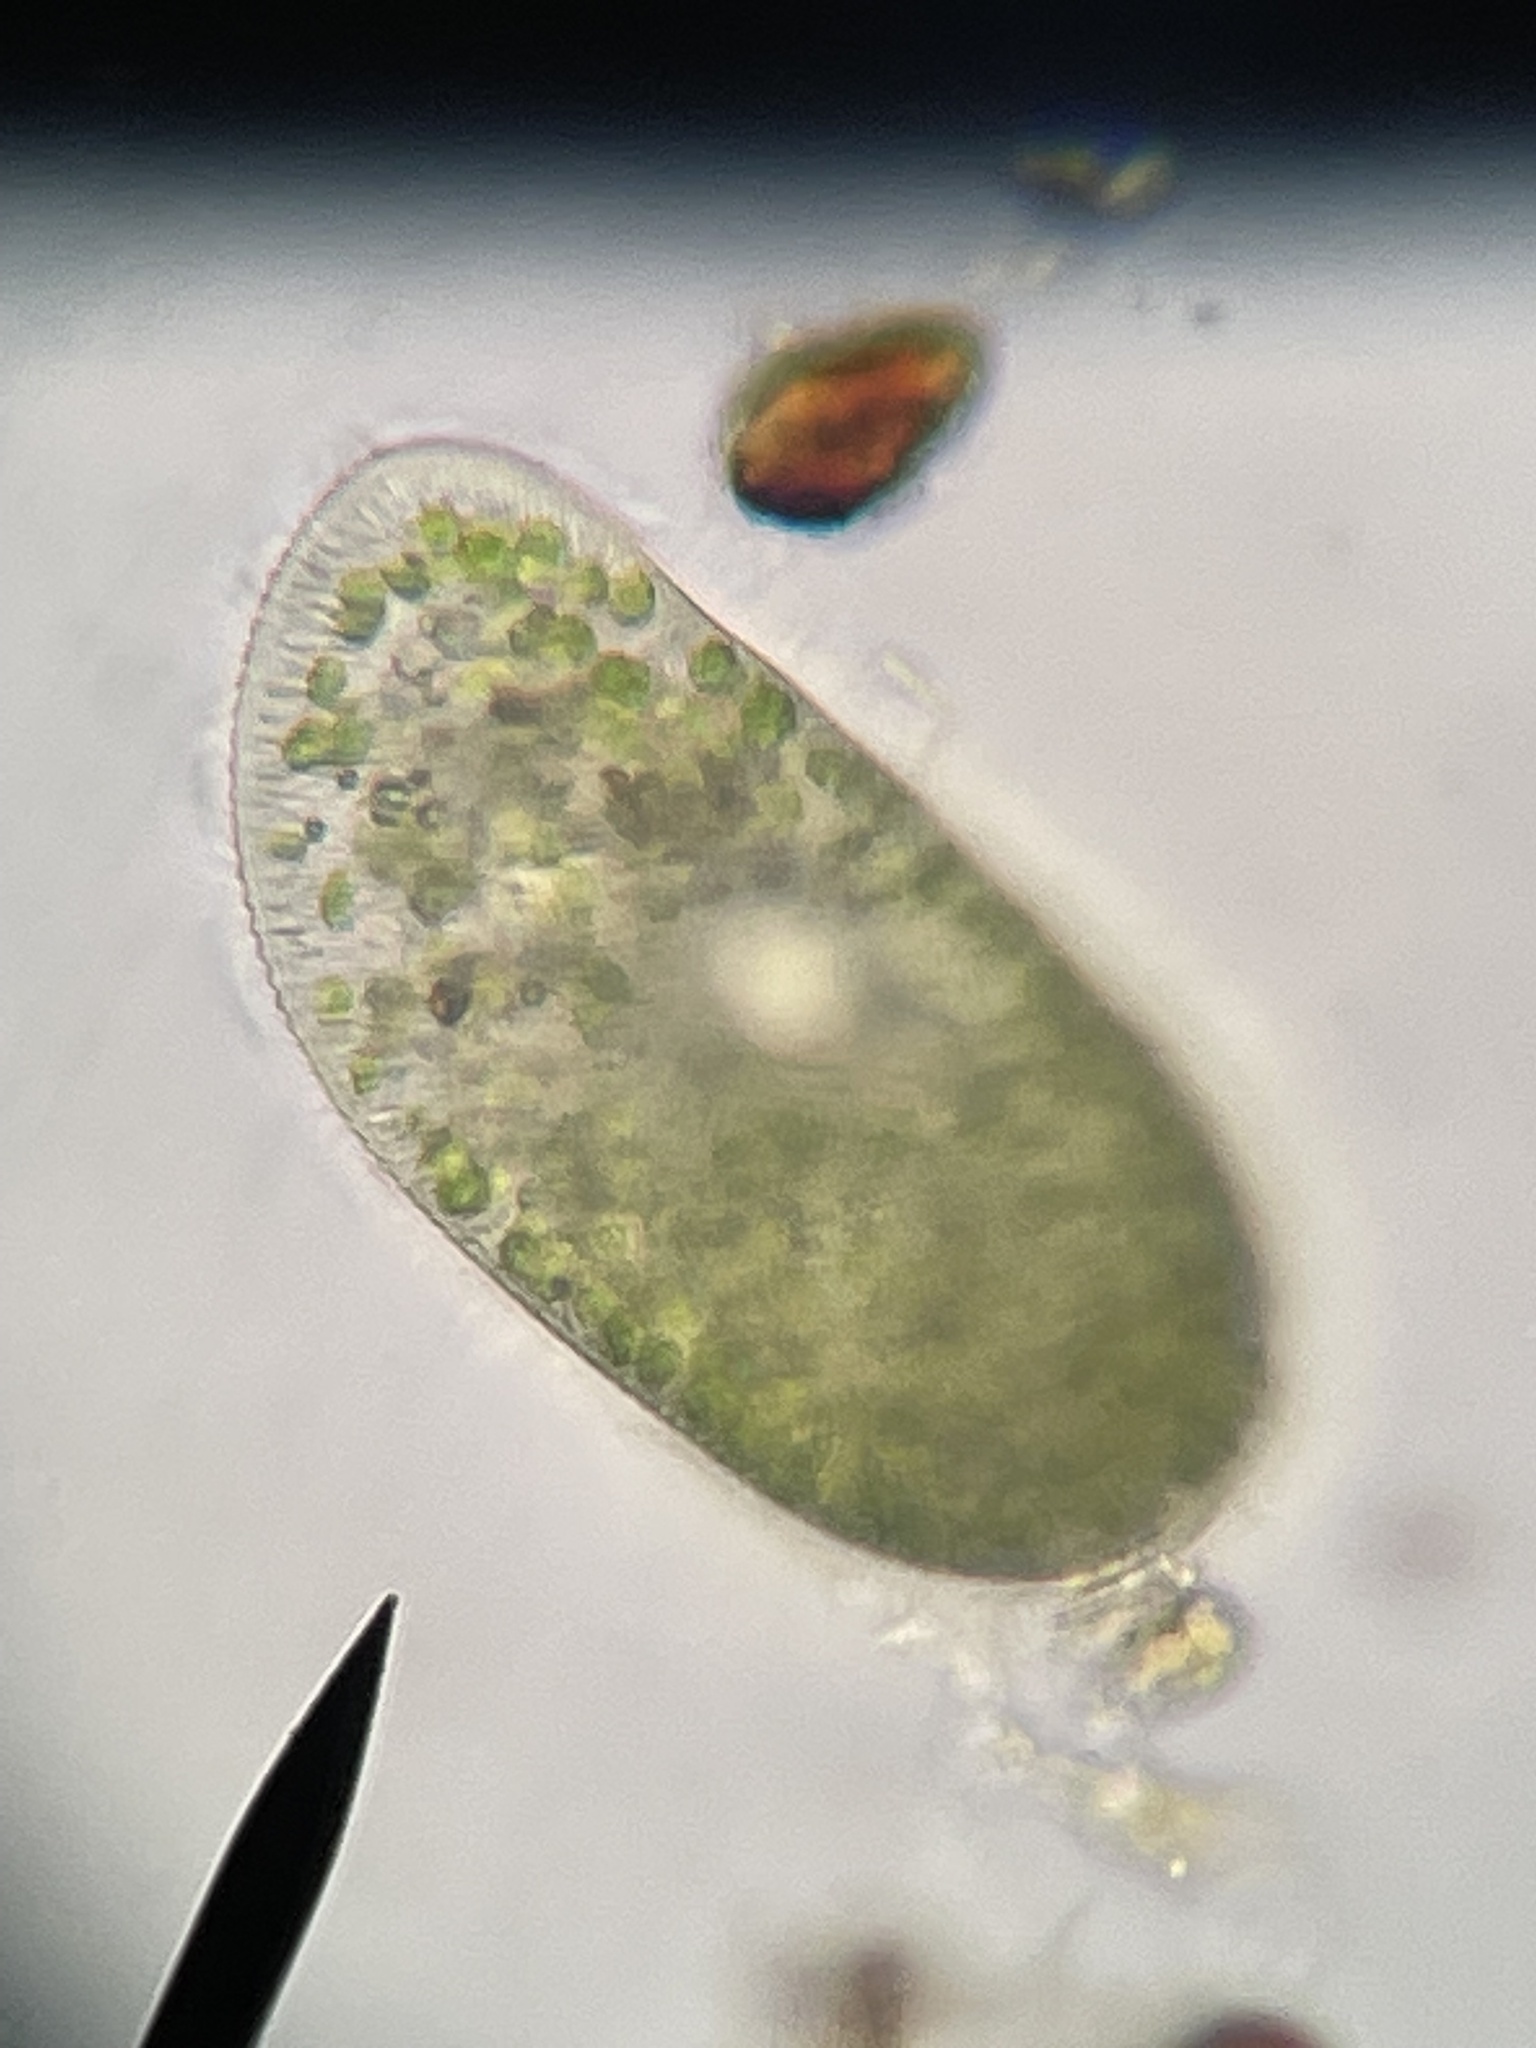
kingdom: Chromista
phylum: Ciliophora
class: Oligohymenophorea
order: Peniculida
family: Parameciidae
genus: Paramecium
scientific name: Paramecium
